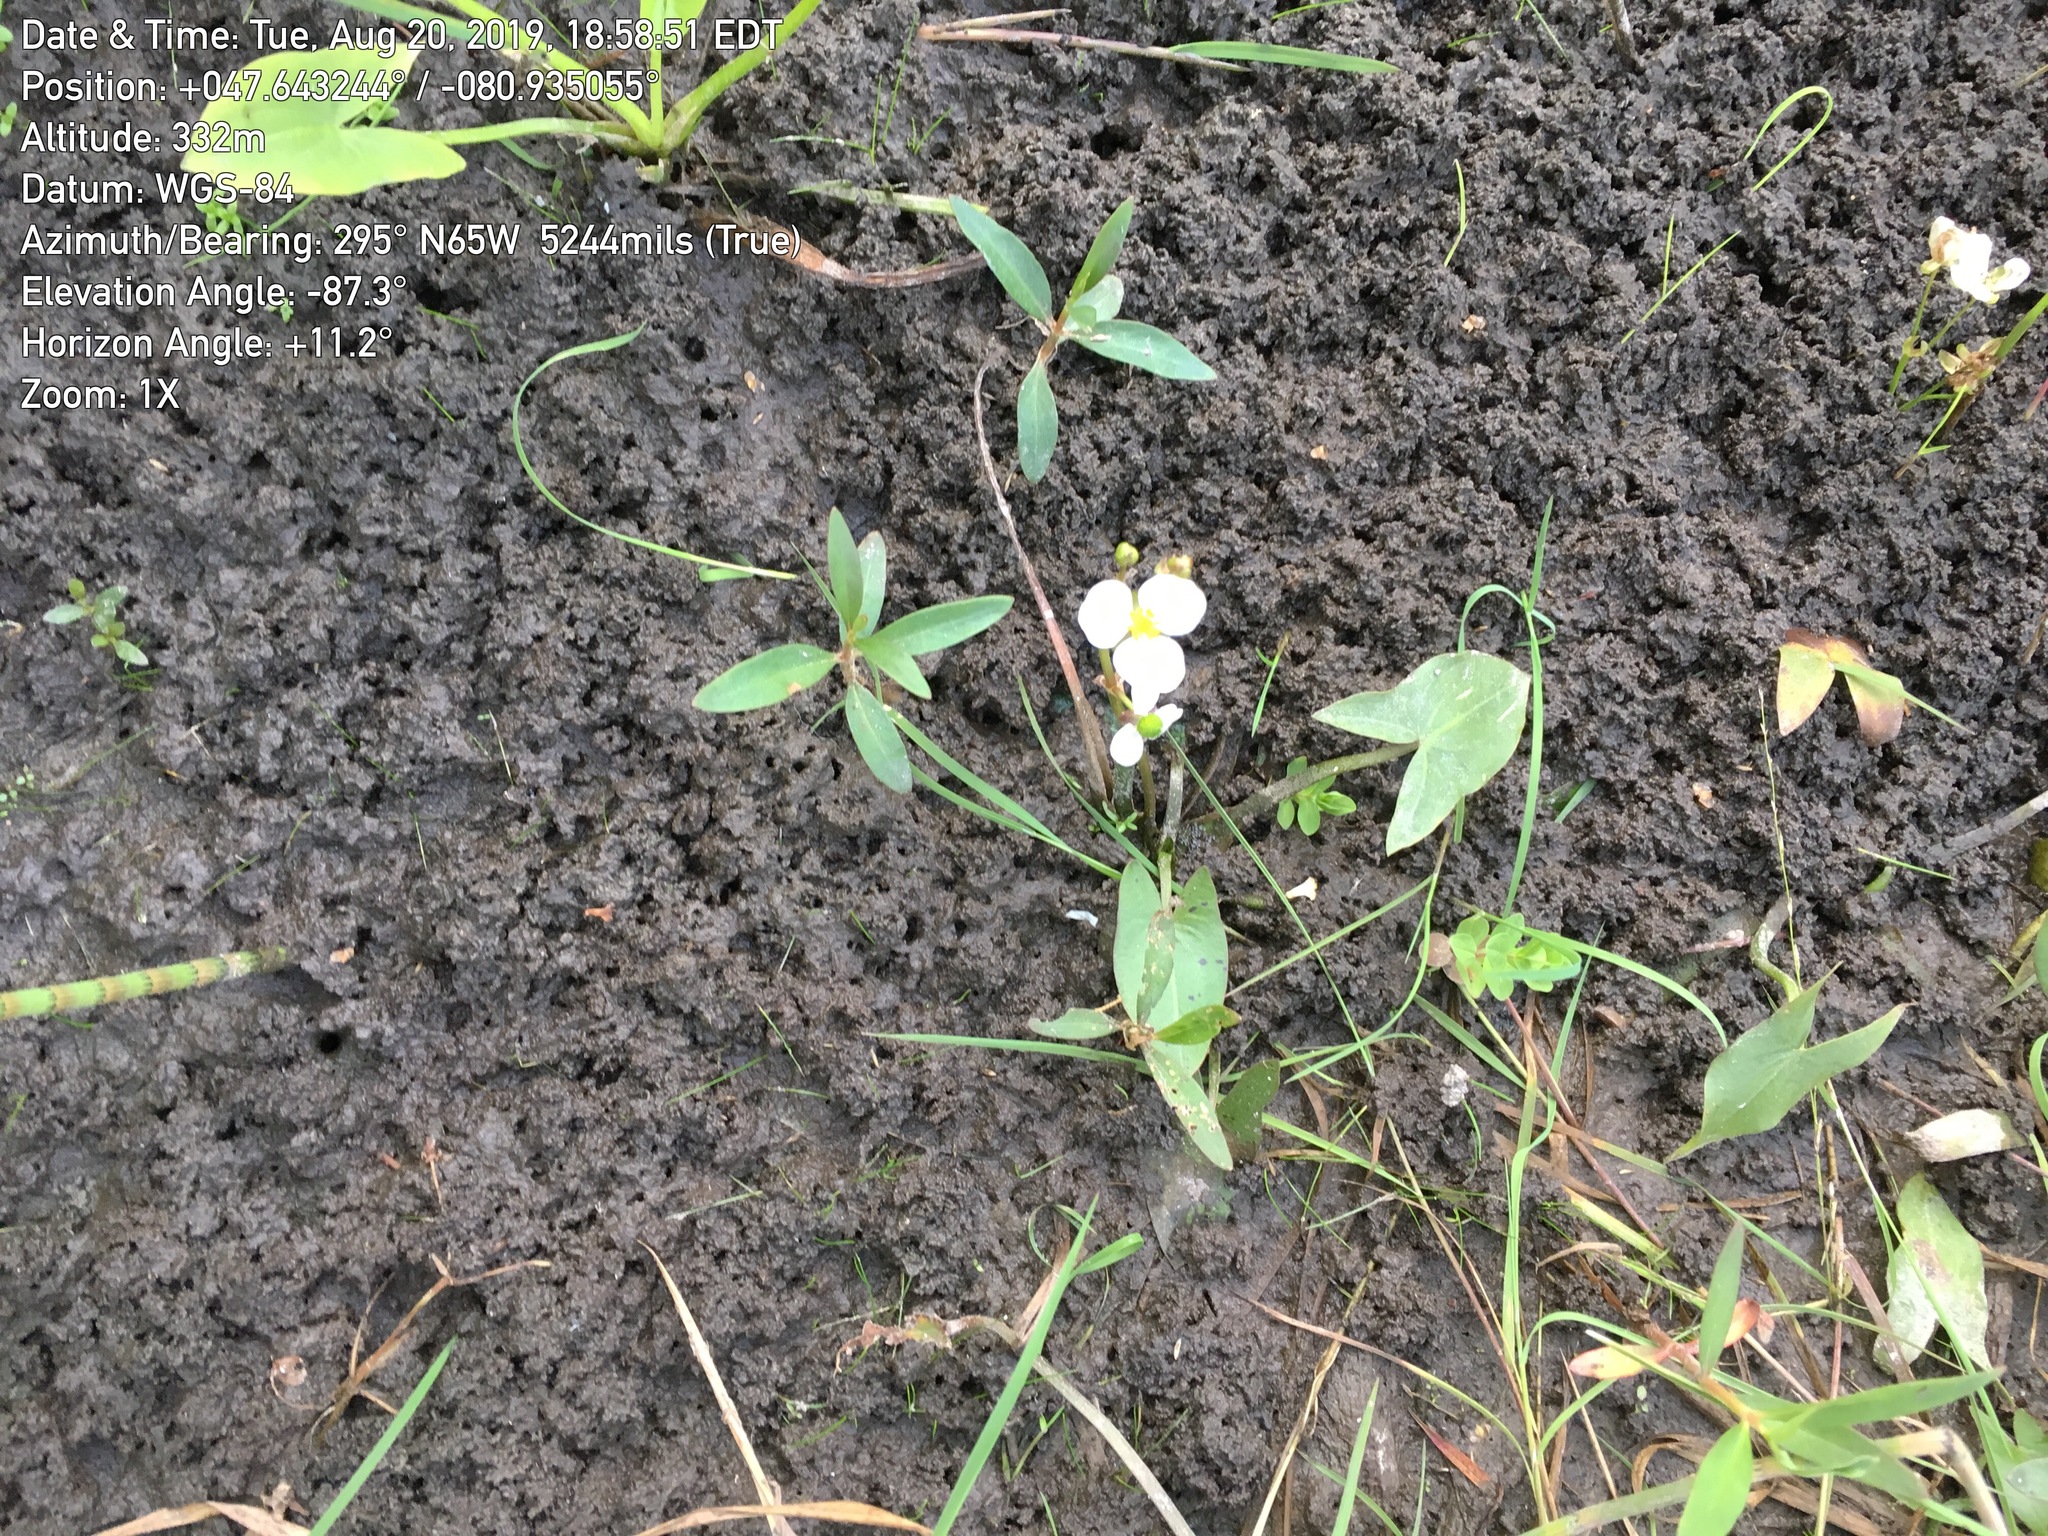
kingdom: Plantae
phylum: Tracheophyta
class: Liliopsida
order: Alismatales
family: Alismataceae
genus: Sagittaria
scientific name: Sagittaria cuneata
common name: Northern arrowhead
